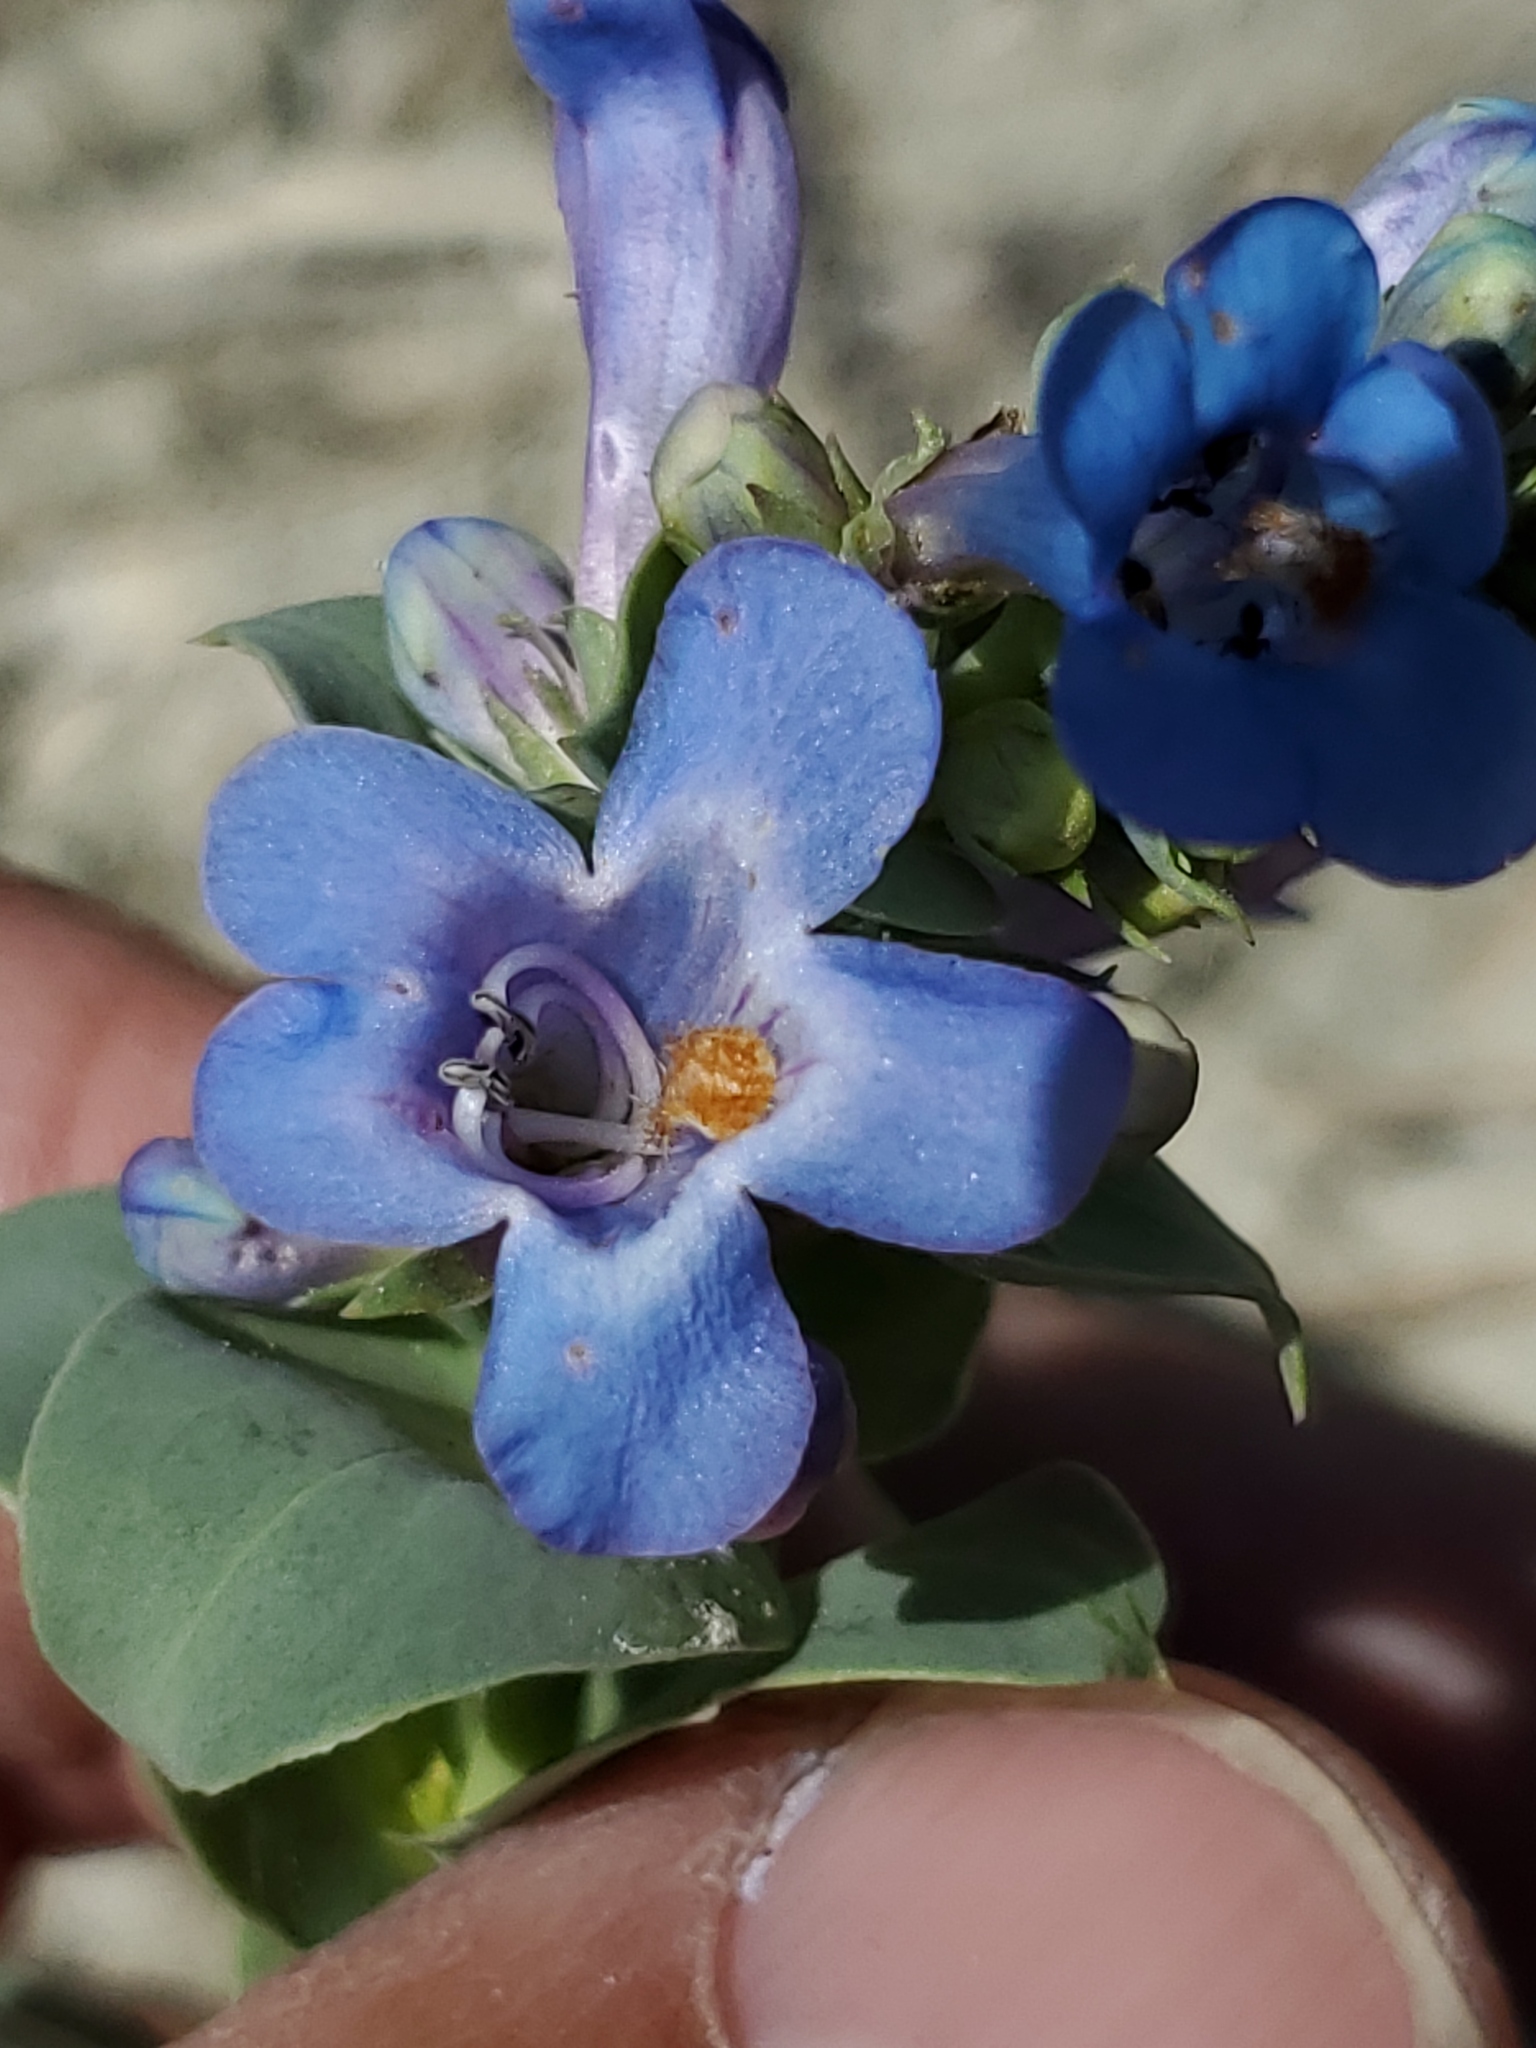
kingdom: Plantae
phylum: Tracheophyta
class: Magnoliopsida
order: Lamiales
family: Plantaginaceae
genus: Penstemon
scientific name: Penstemon nitidus
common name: Shining penstemon
